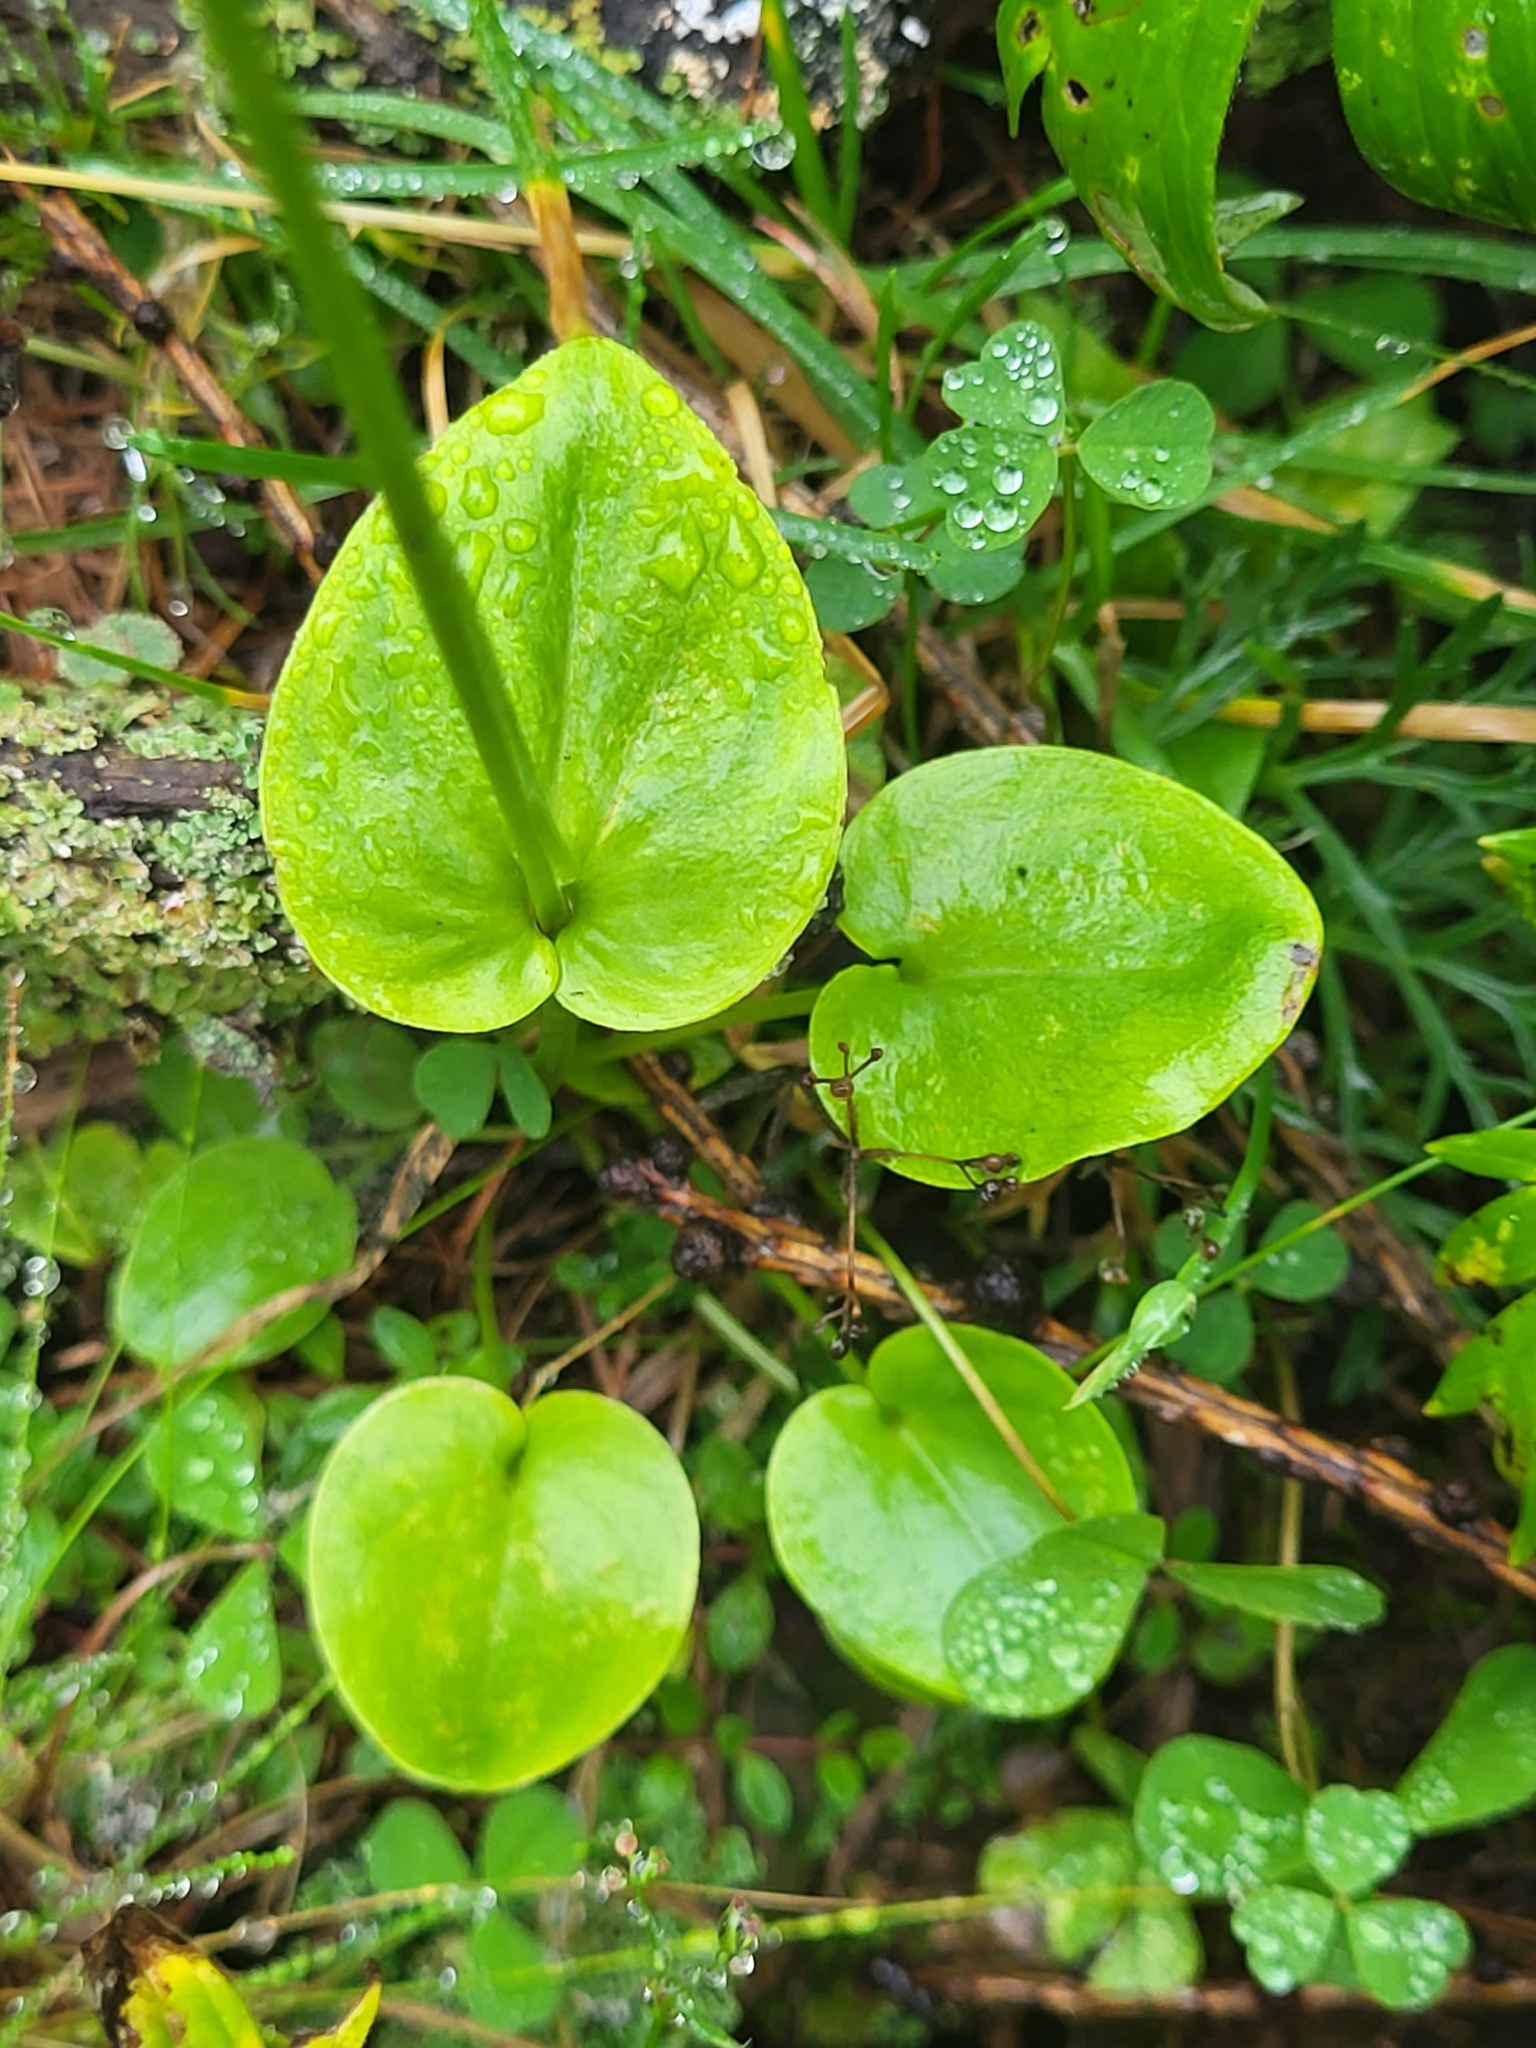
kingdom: Plantae
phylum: Tracheophyta
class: Magnoliopsida
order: Celastrales
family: Parnassiaceae
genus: Parnassia
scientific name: Parnassia palustris
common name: Grass-of-parnassus
